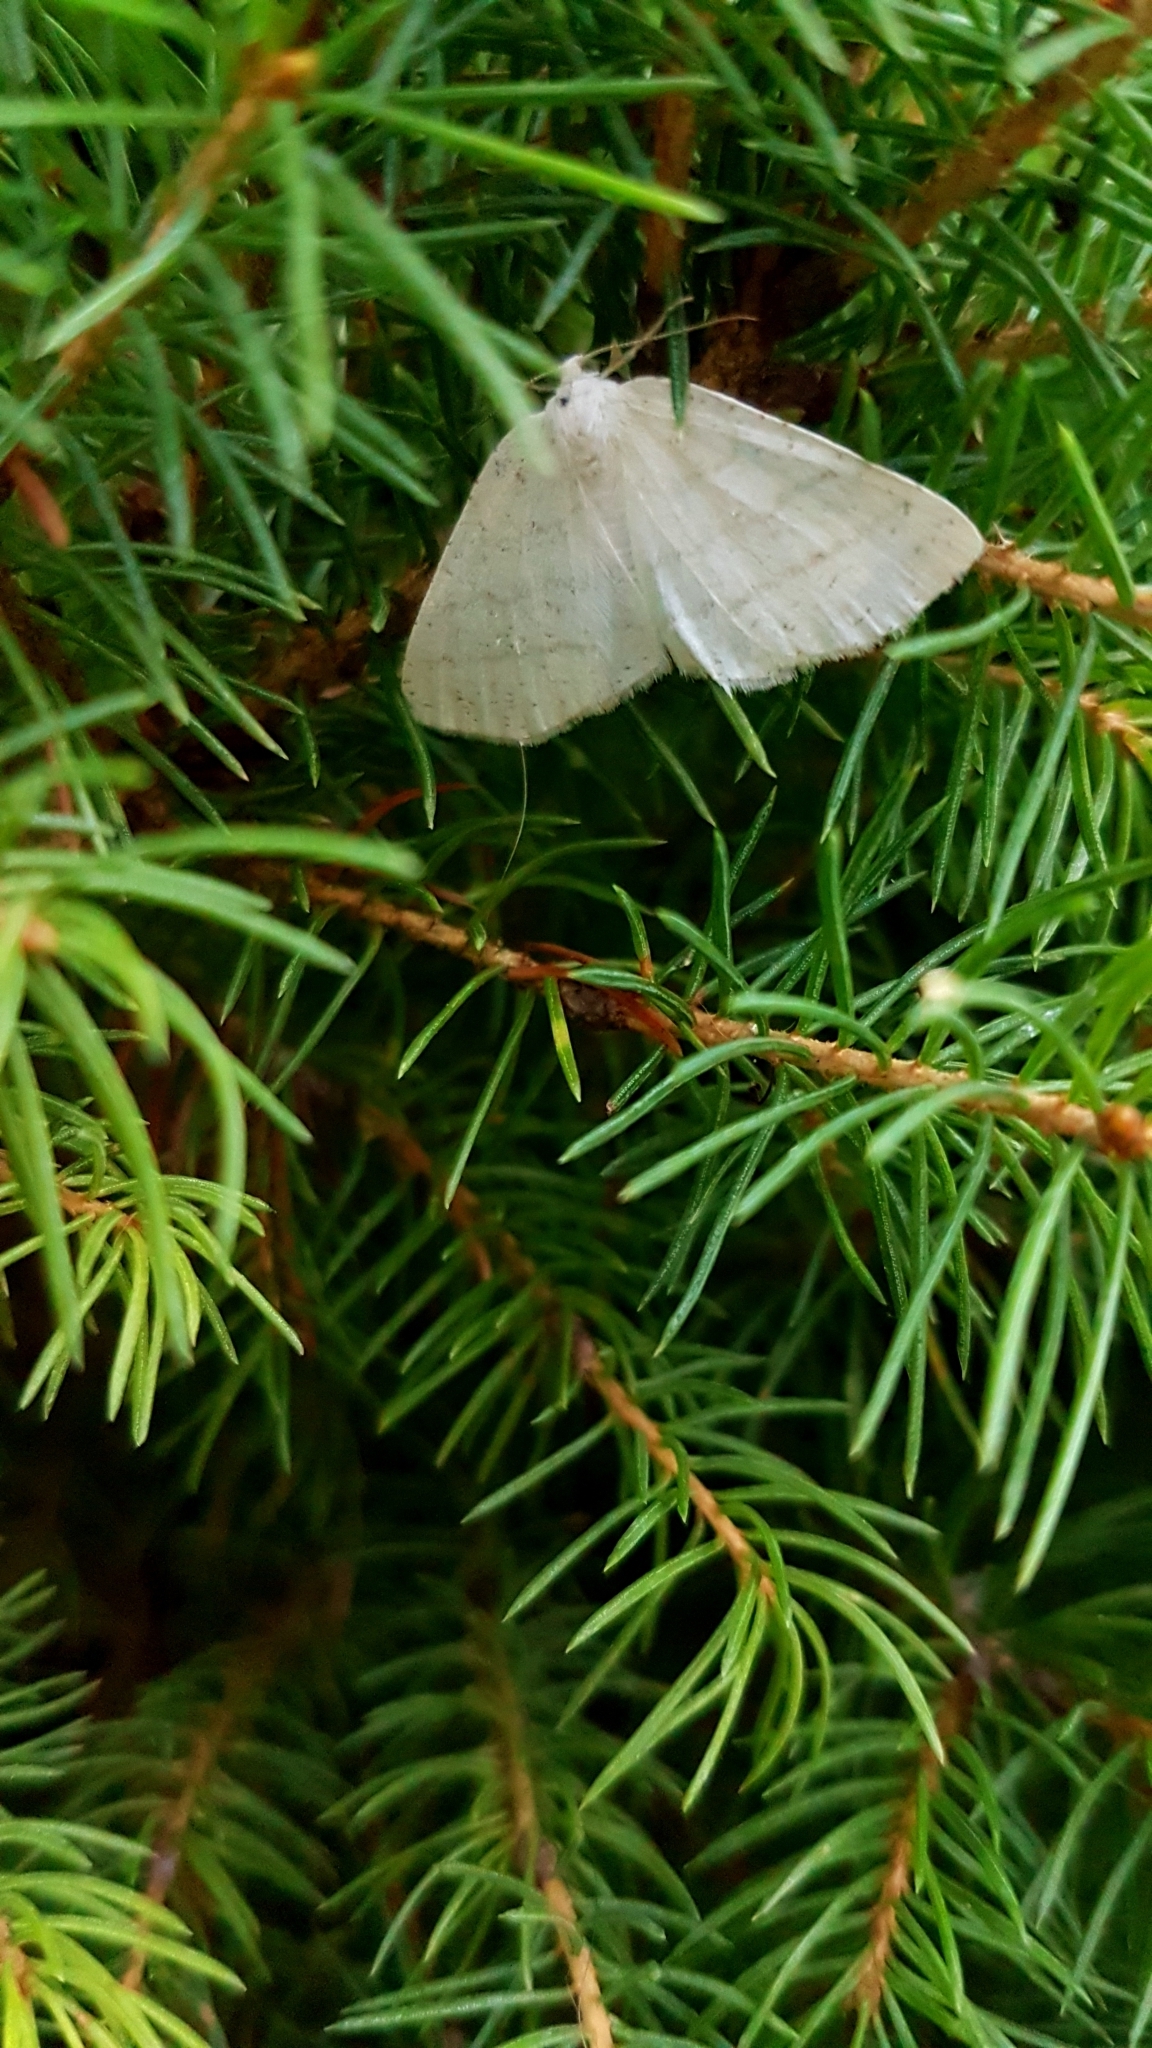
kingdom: Animalia
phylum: Arthropoda
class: Insecta
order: Lepidoptera
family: Geometridae
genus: Cabera
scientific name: Cabera pusaria
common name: Common white wave
